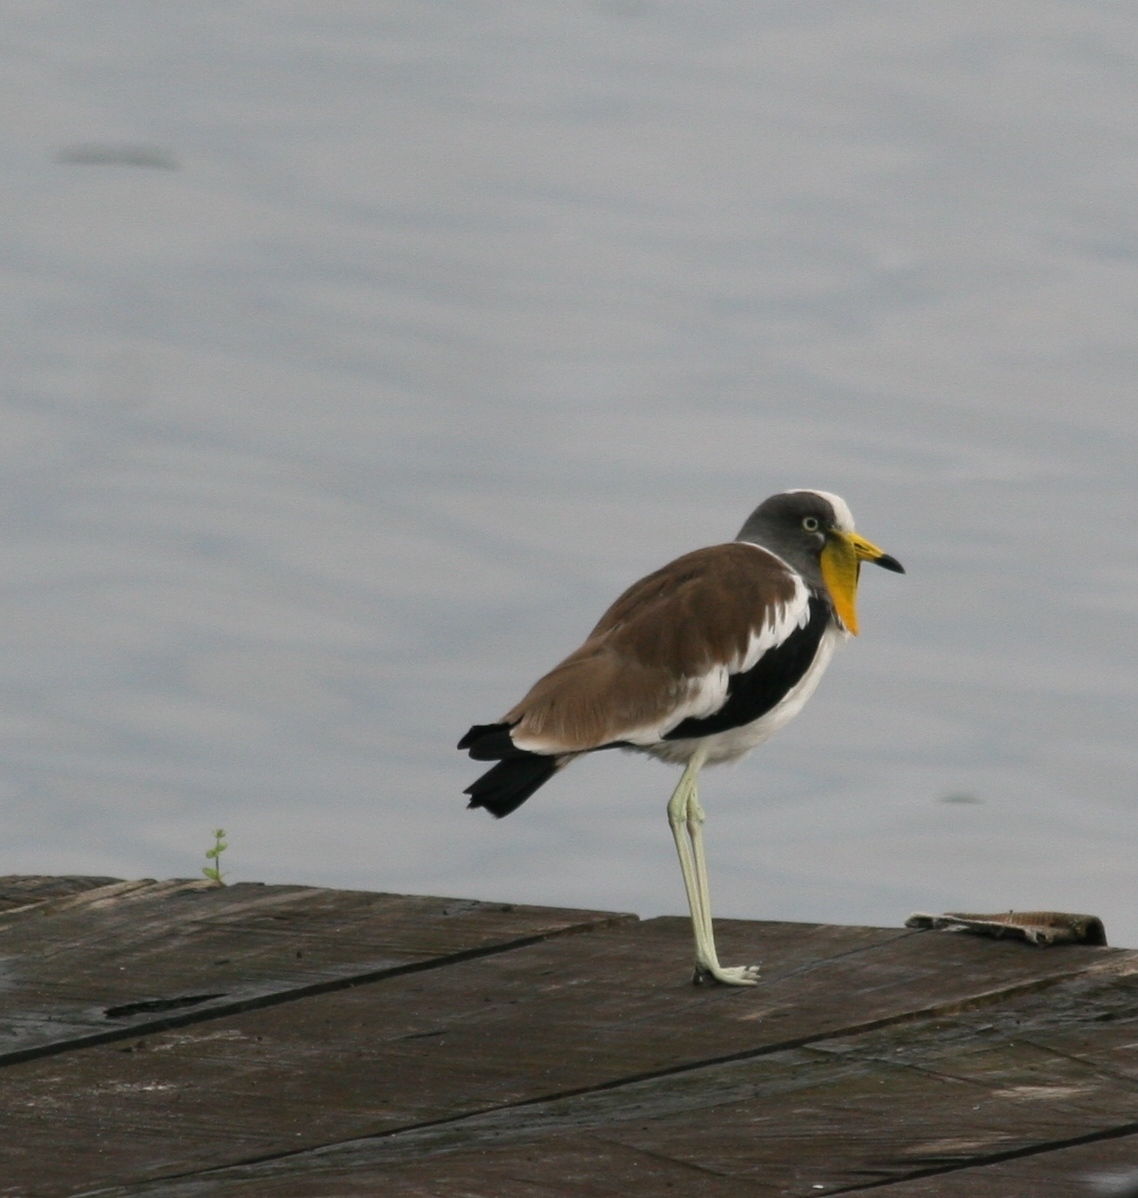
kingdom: Animalia
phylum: Chordata
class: Aves
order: Charadriiformes
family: Charadriidae
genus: Vanellus
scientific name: Vanellus albiceps
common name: White-crowned lapwing
